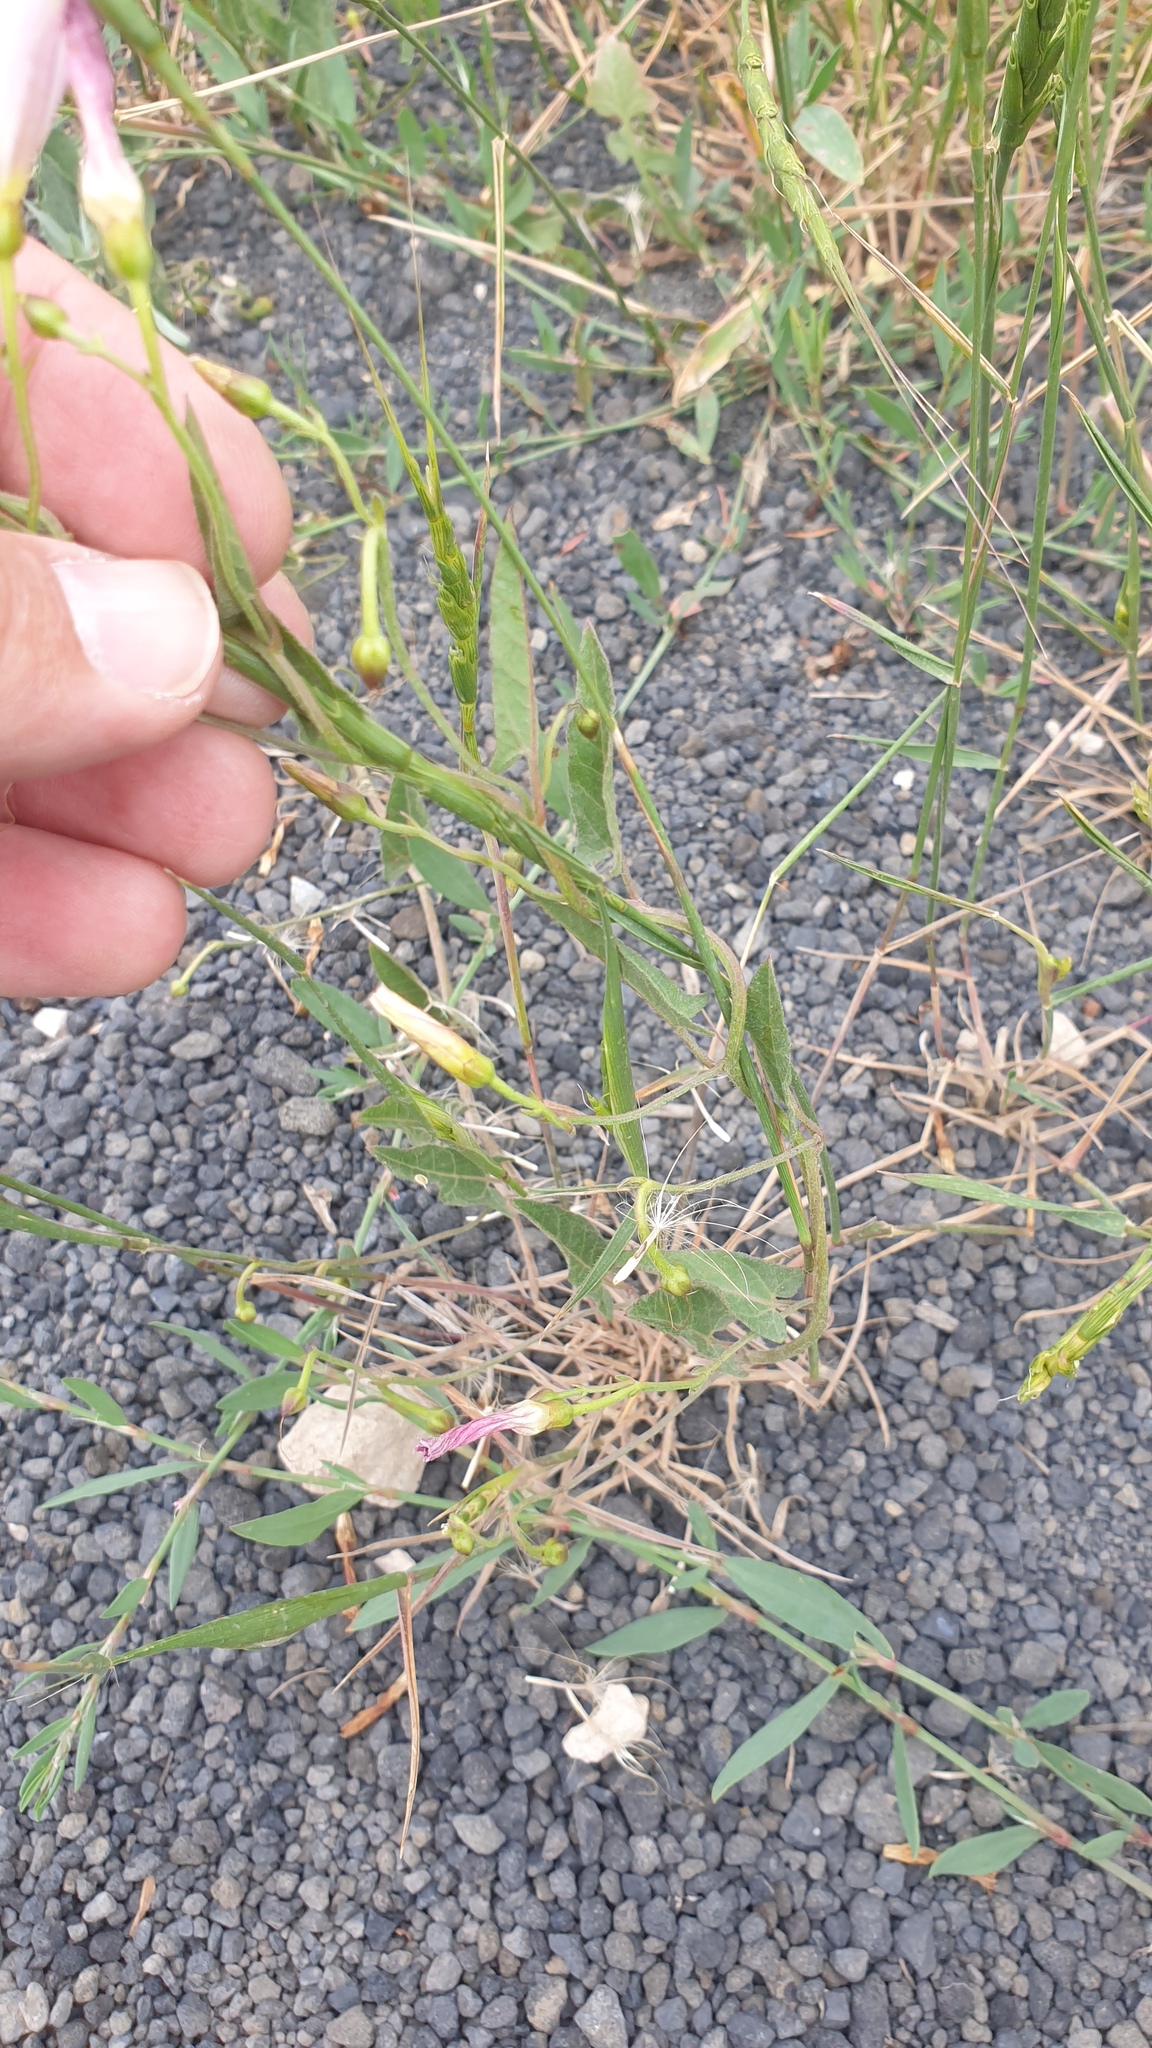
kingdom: Plantae
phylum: Tracheophyta
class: Magnoliopsida
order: Solanales
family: Convolvulaceae
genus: Convolvulus
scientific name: Convolvulus arvensis
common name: Field bindweed
